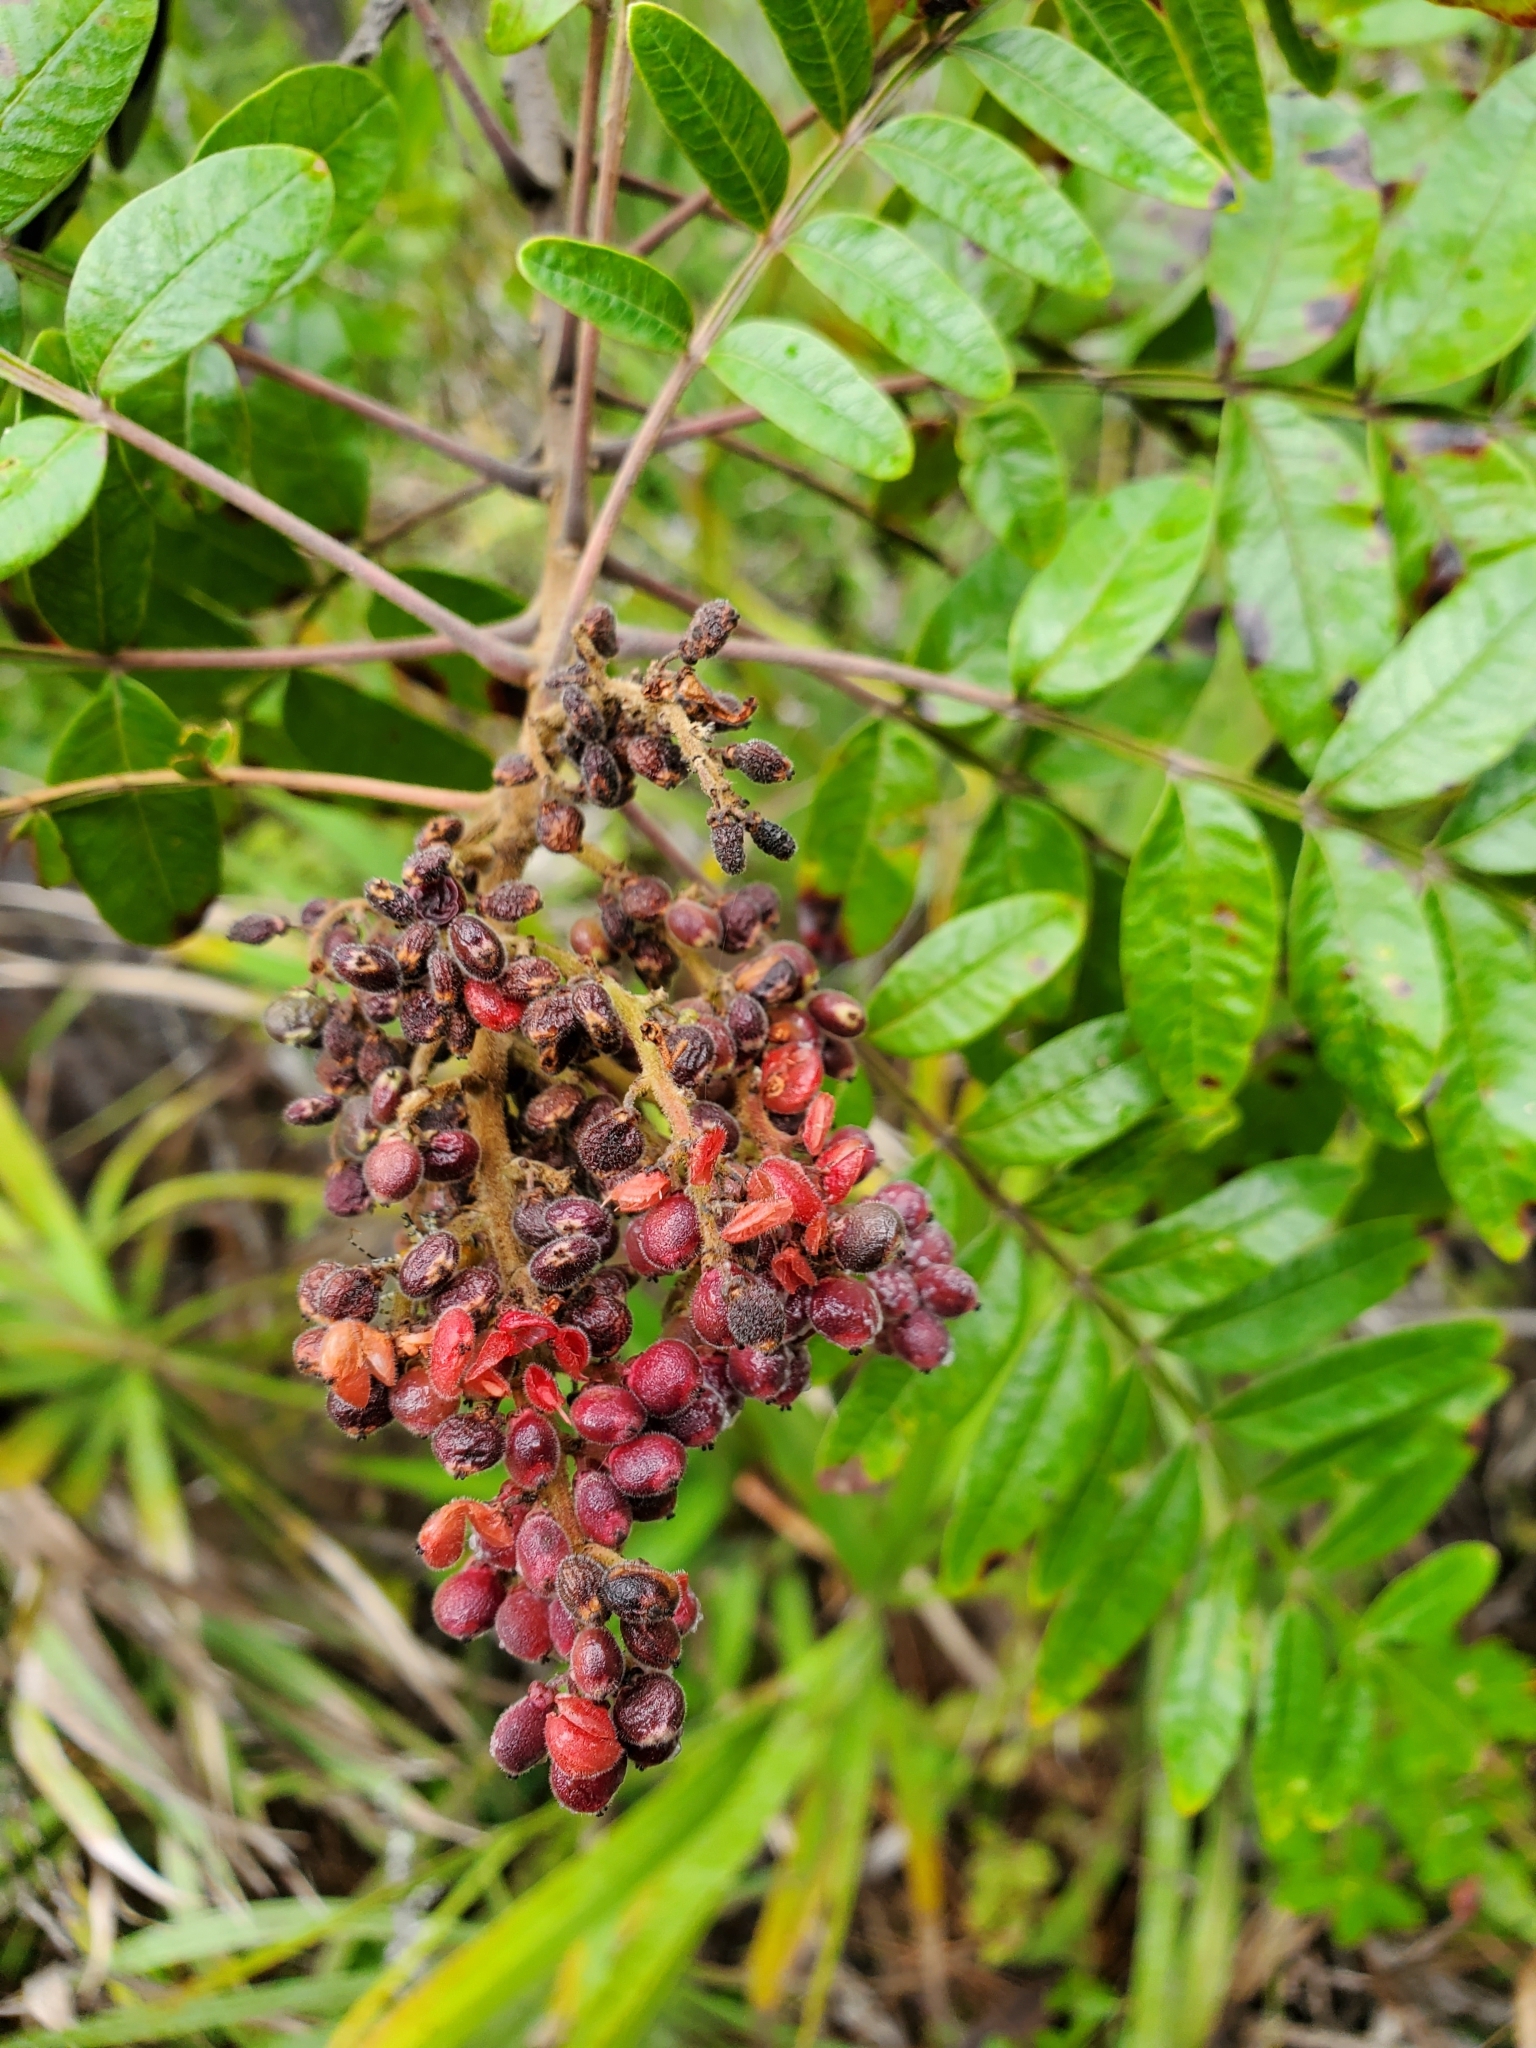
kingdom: Plantae
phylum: Tracheophyta
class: Magnoliopsida
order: Sapindales
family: Anacardiaceae
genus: Rhus
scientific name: Rhus copallina
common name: Shining sumac
